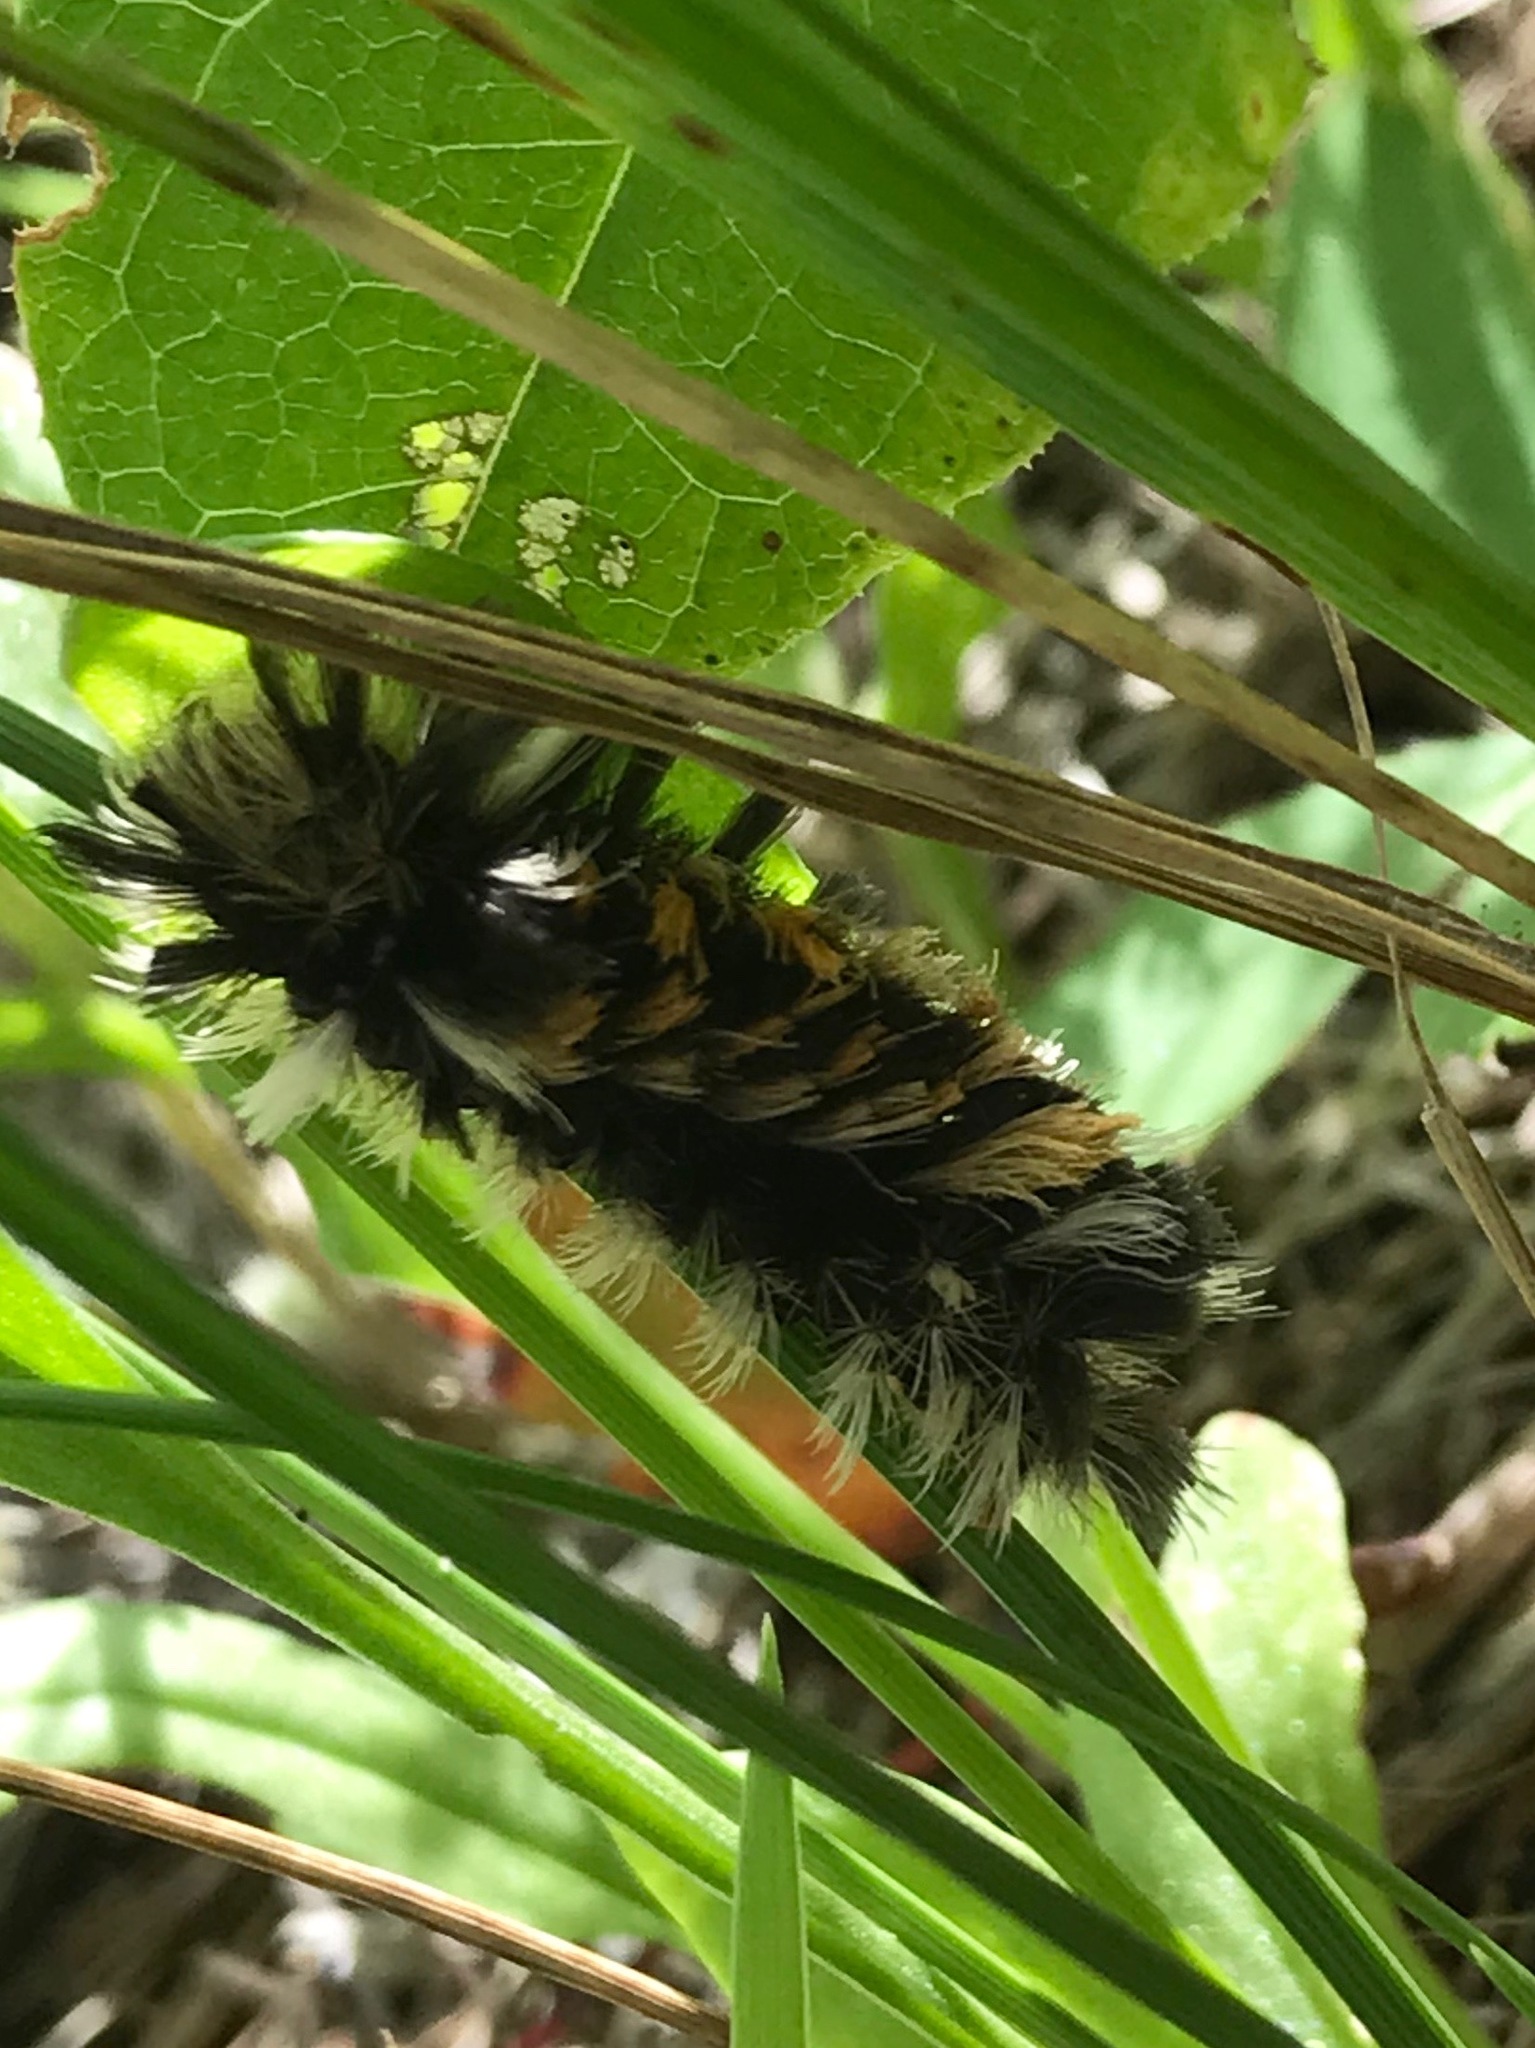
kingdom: Animalia
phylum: Arthropoda
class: Insecta
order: Lepidoptera
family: Erebidae
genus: Euchaetes
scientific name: Euchaetes egle
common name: Milkweed tussock moth
